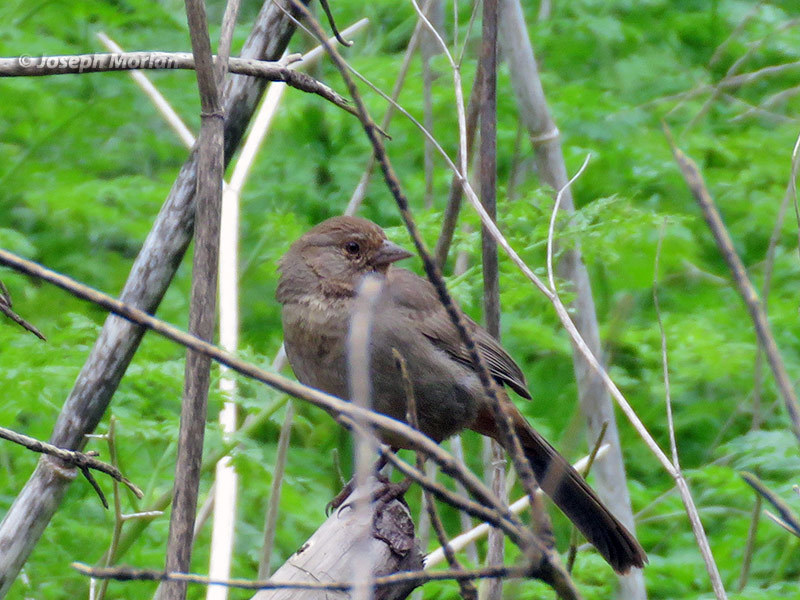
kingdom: Animalia
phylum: Chordata
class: Aves
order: Passeriformes
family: Passerellidae
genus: Melozone
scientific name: Melozone crissalis
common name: California towhee
